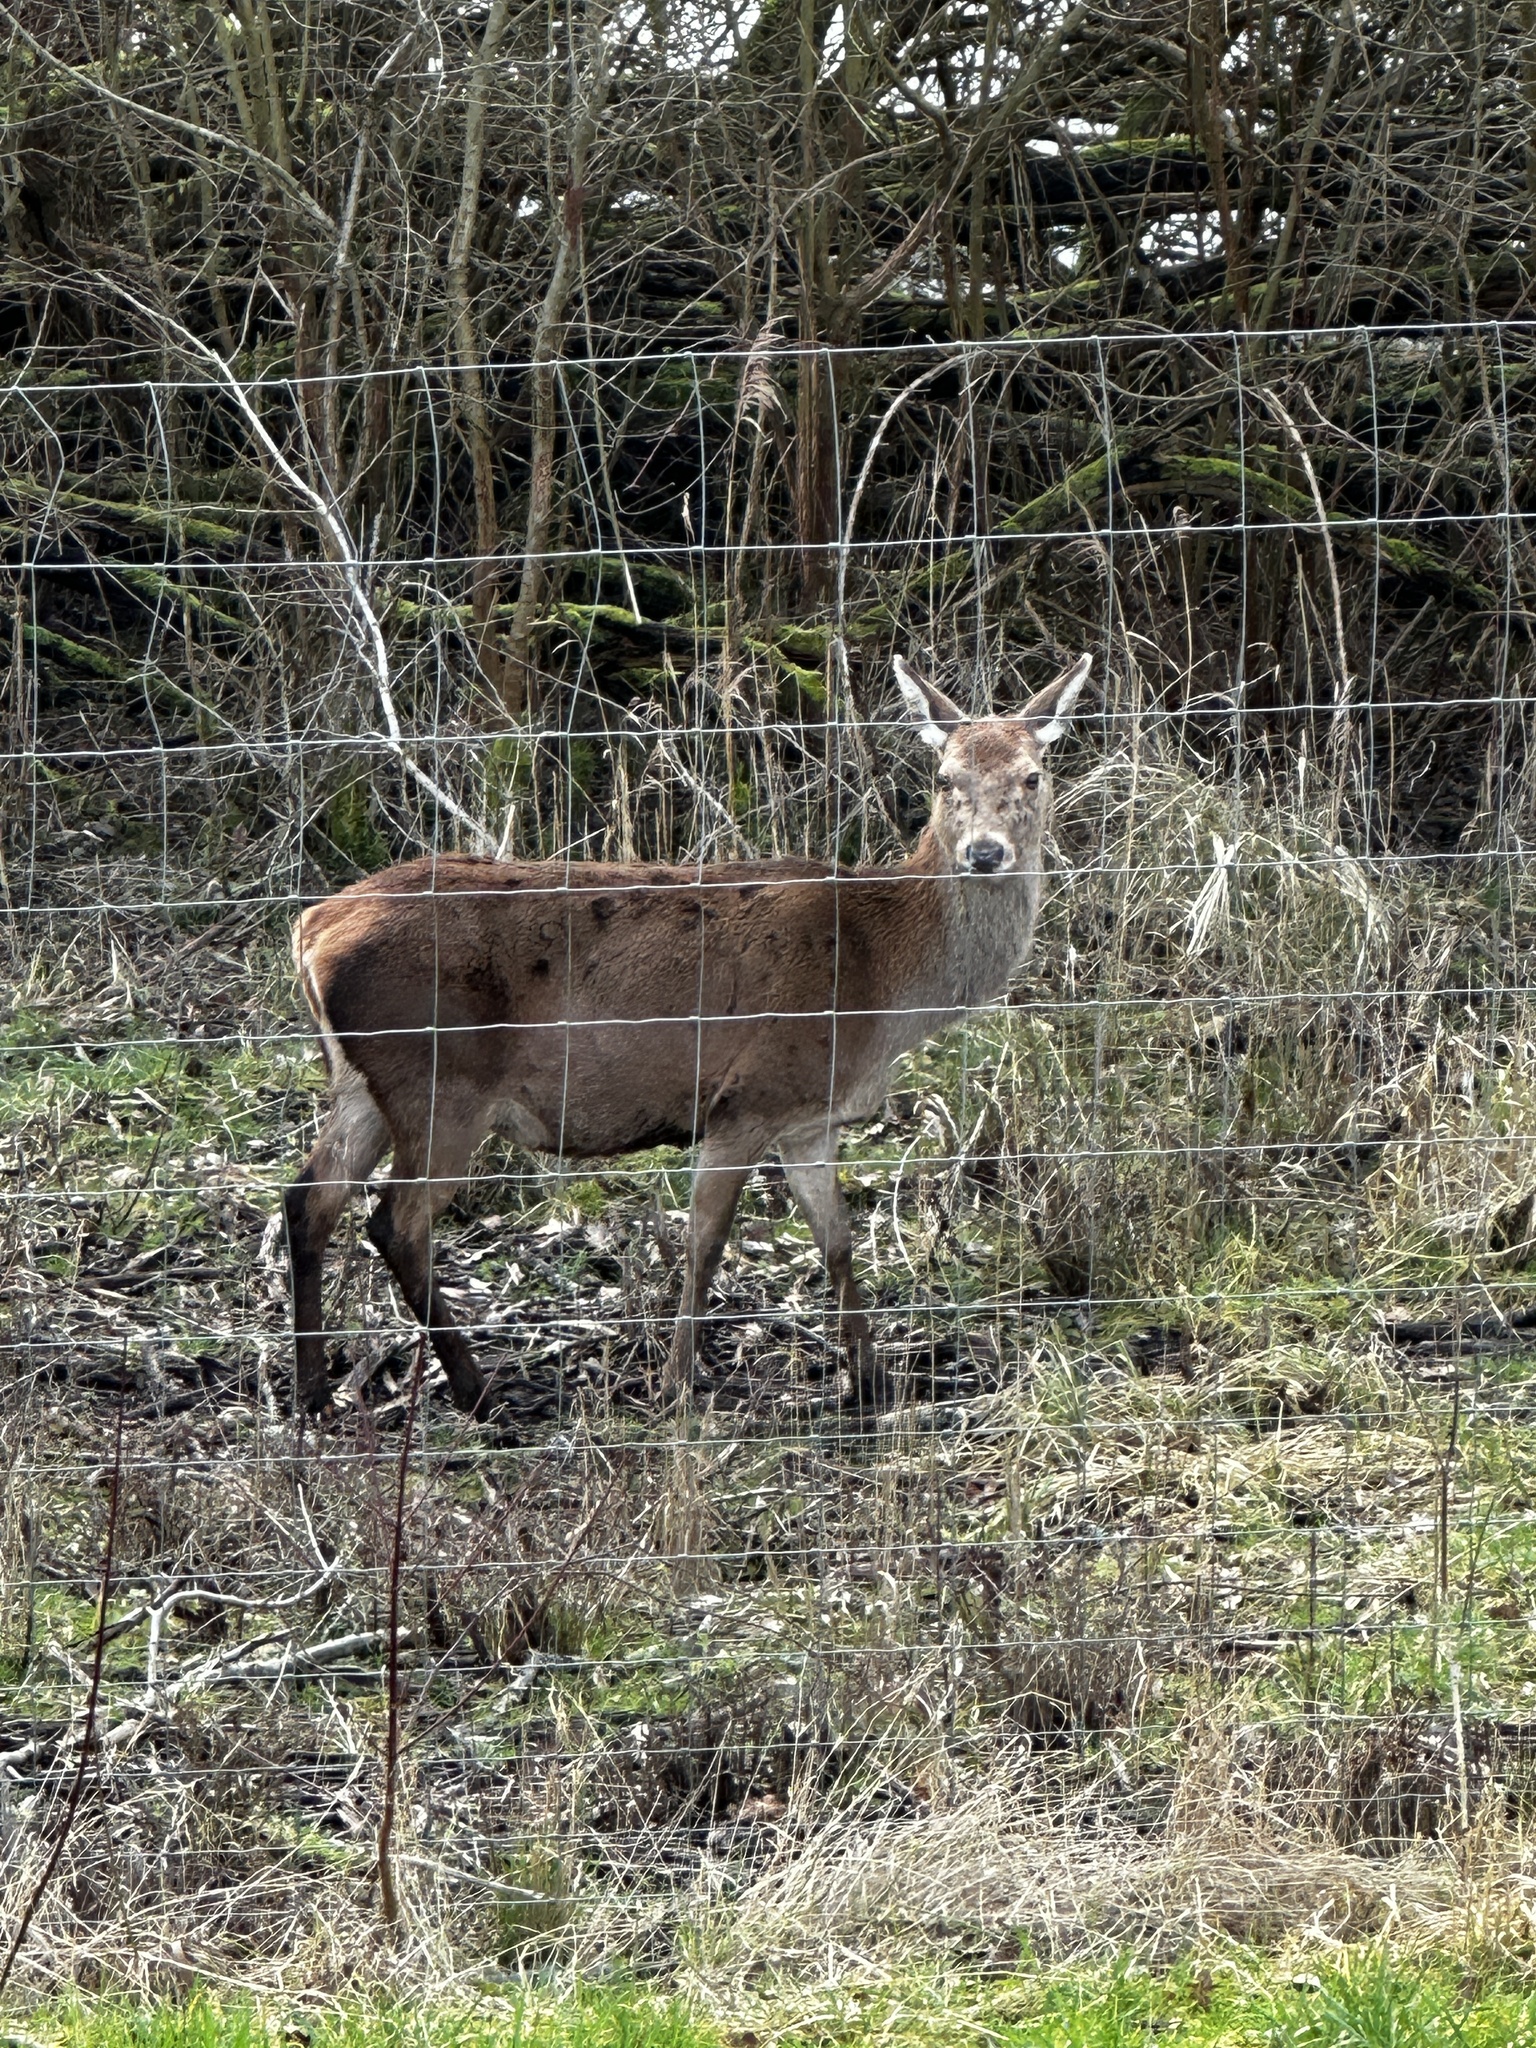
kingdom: Animalia
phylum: Chordata
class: Mammalia
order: Artiodactyla
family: Cervidae
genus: Cervus
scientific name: Cervus elaphus
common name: Red deer
